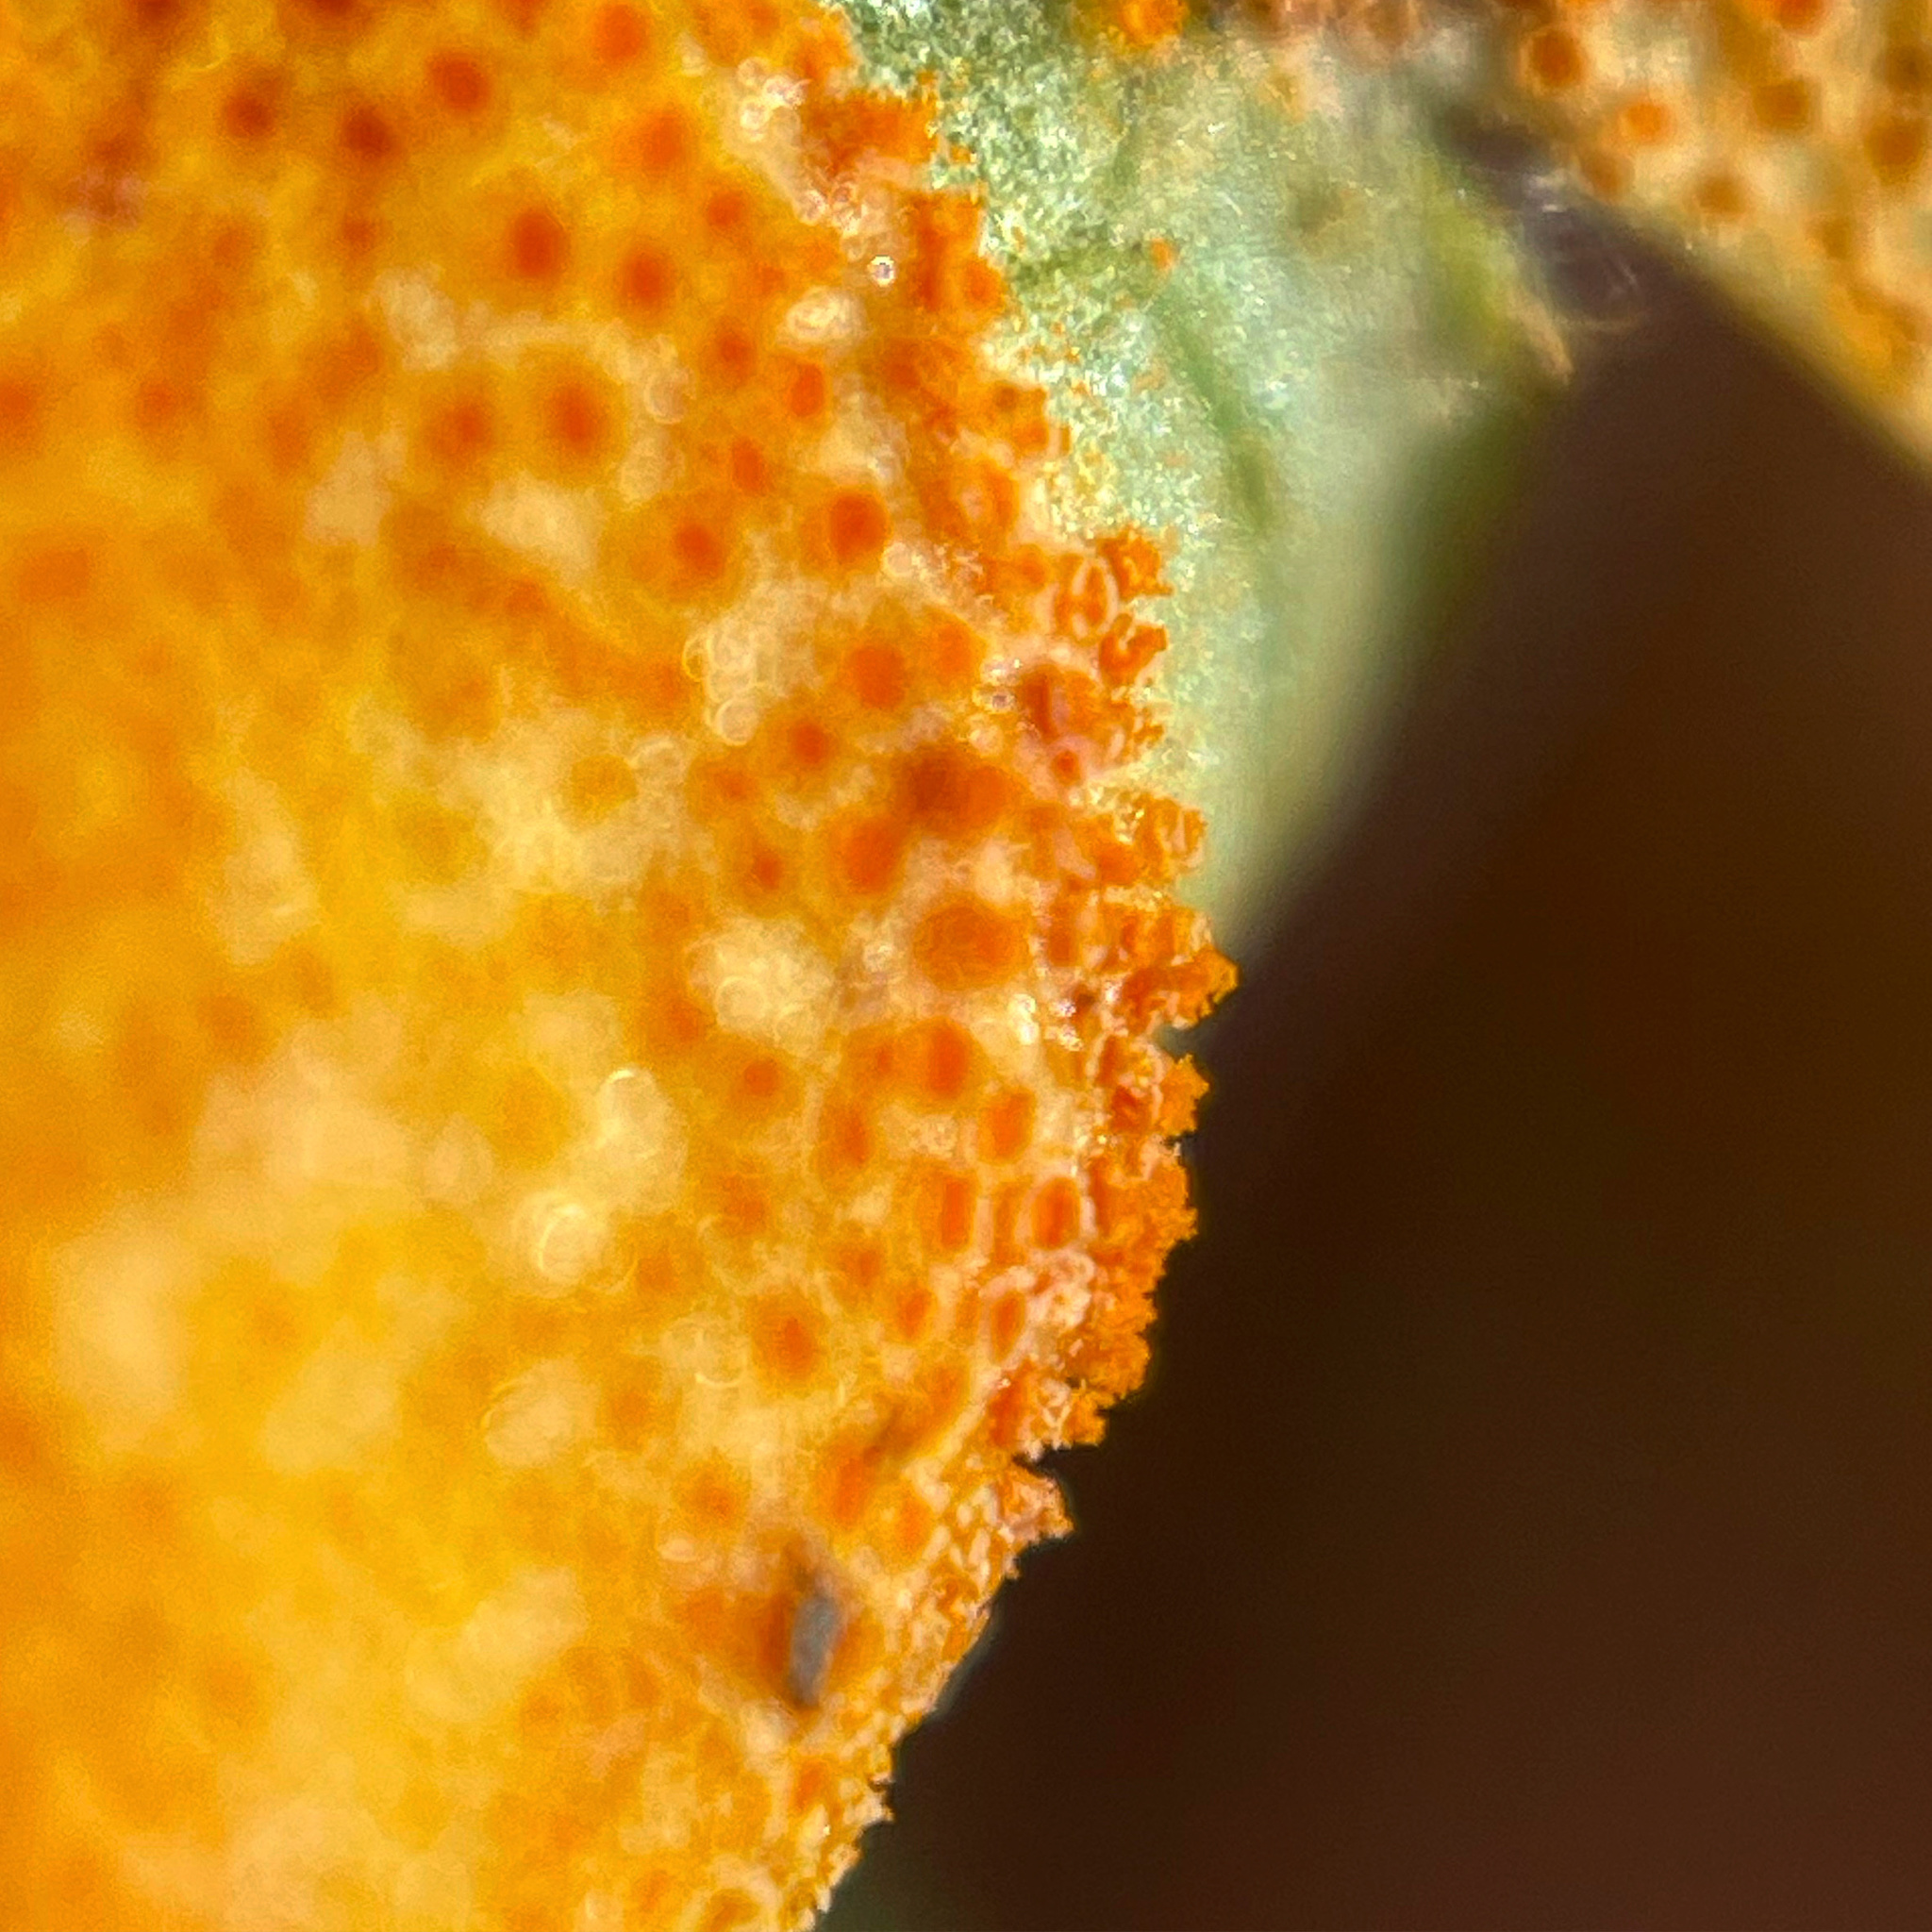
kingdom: Fungi
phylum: Basidiomycota
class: Pucciniomycetes
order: Pucciniales
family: Pucciniaceae
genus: Puccinia
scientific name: Puccinia podophylli
